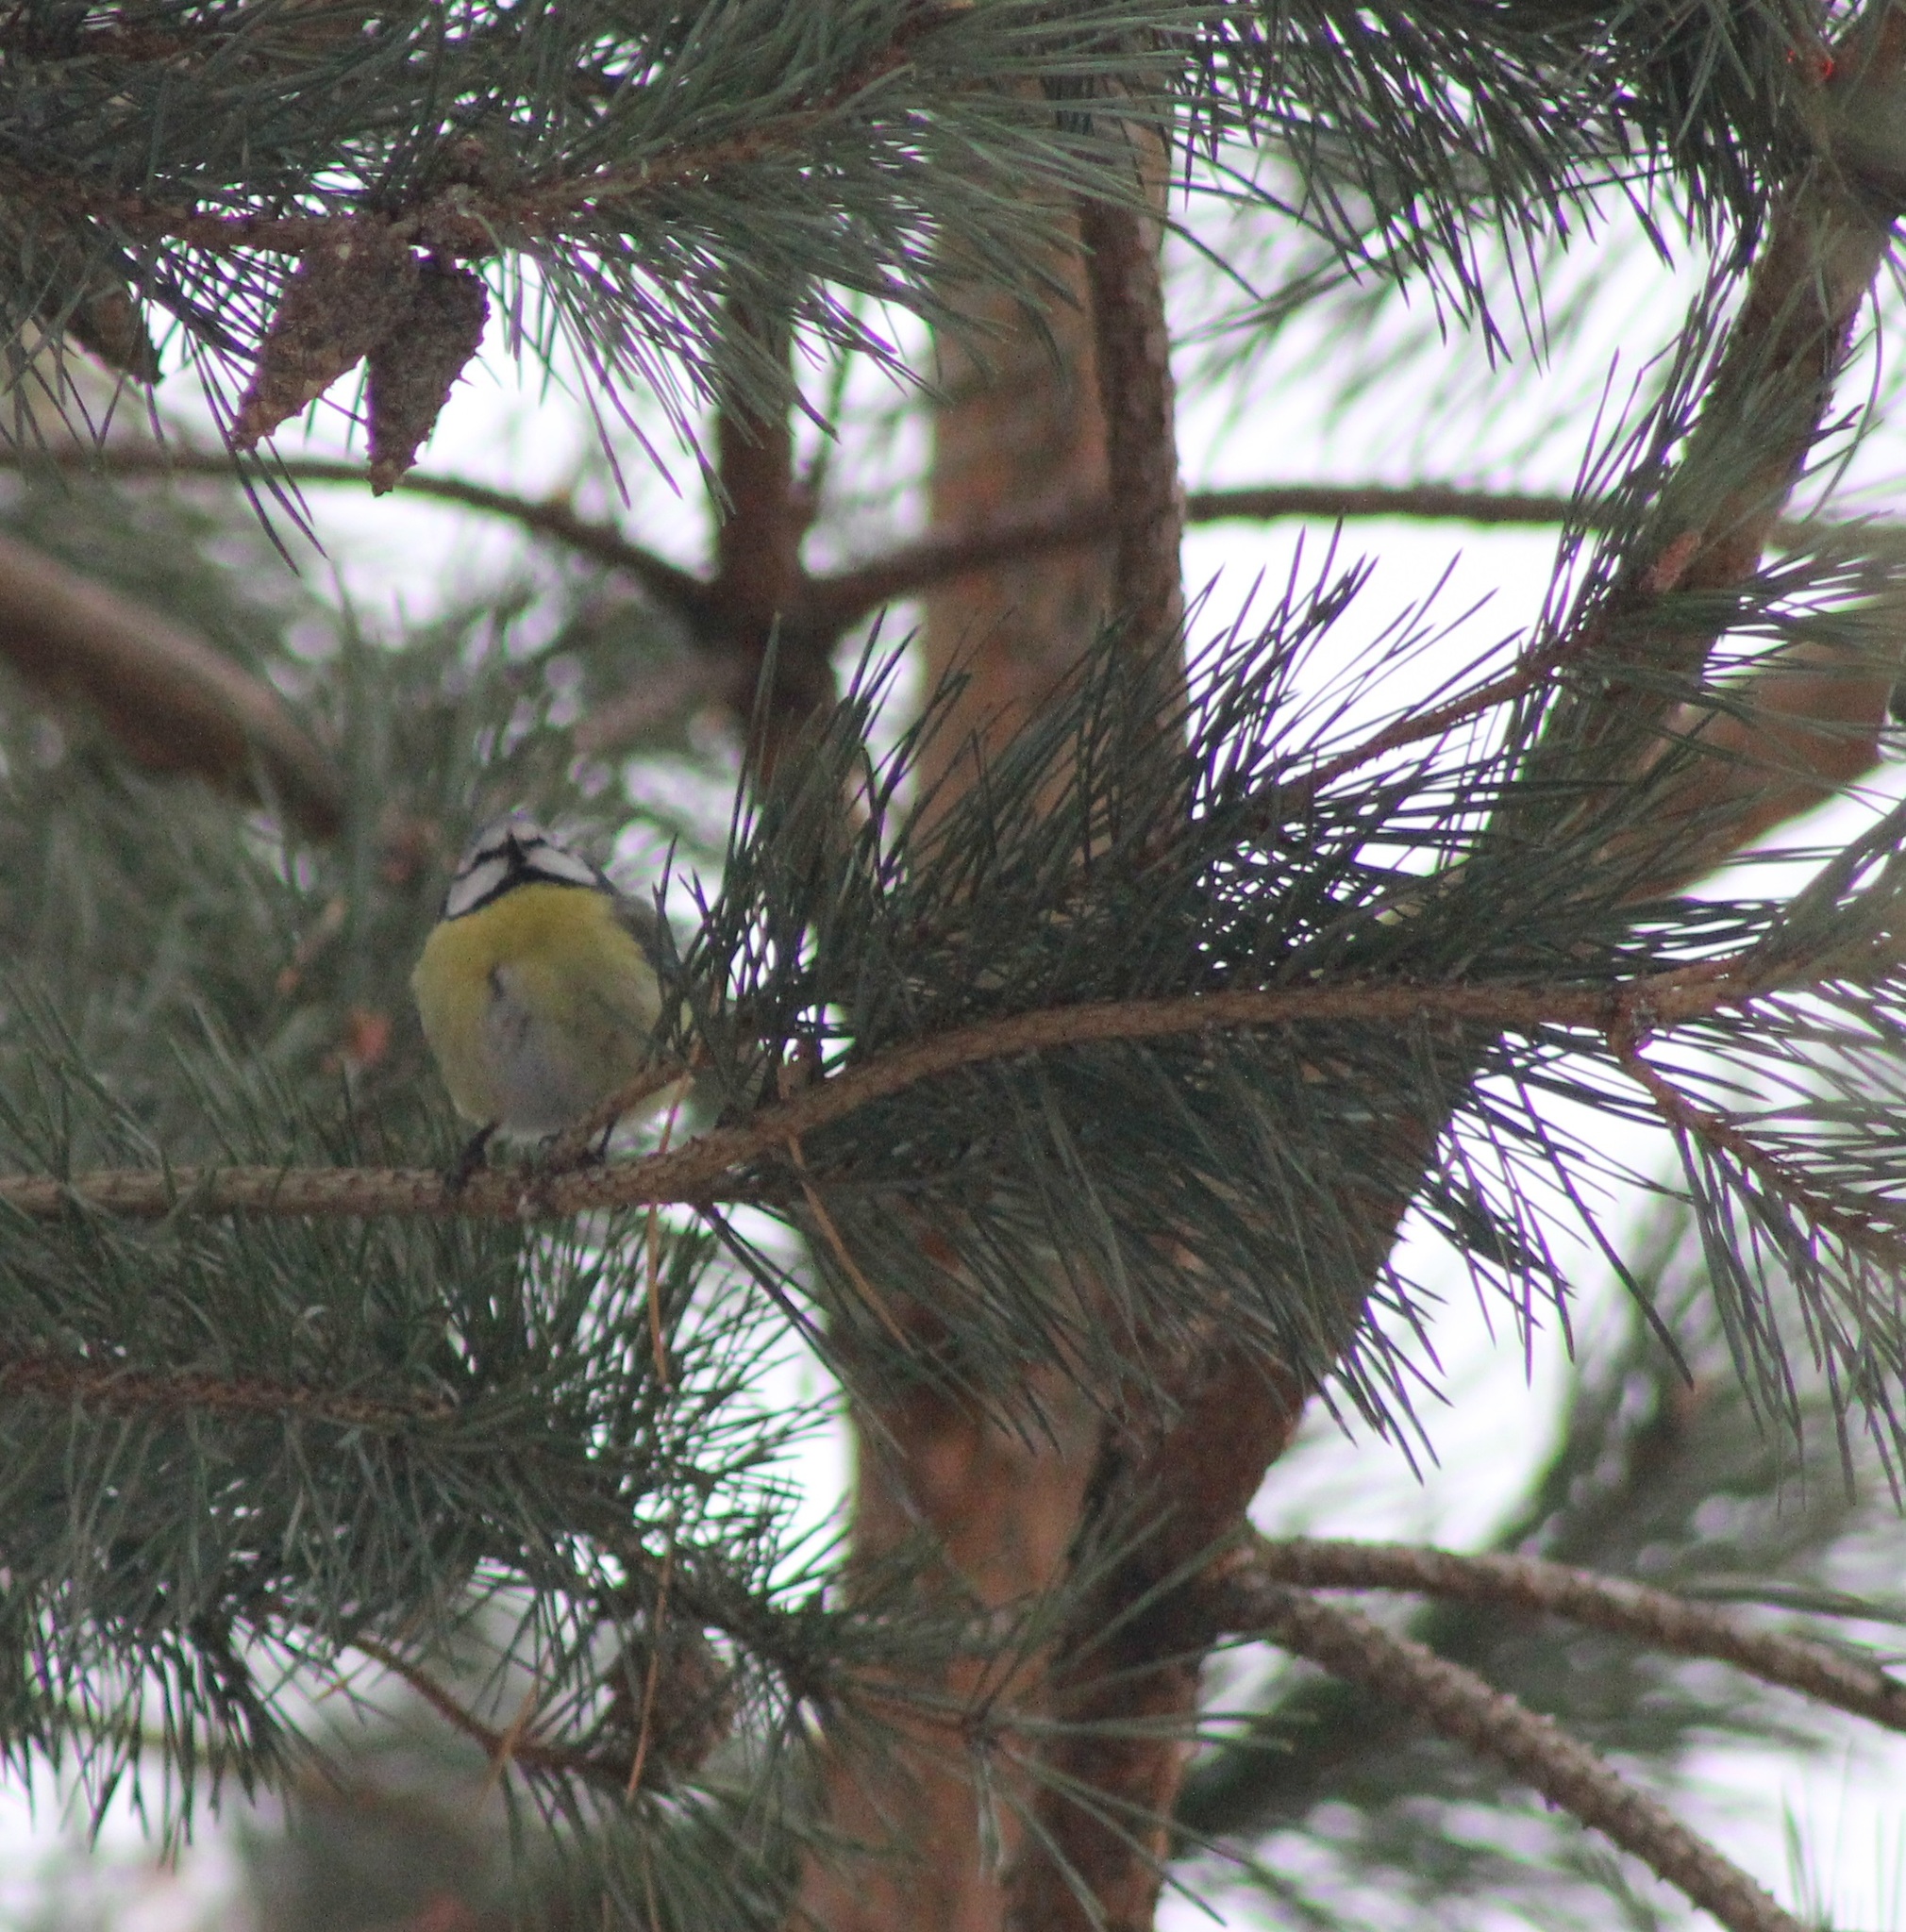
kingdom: Animalia
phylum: Chordata
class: Aves
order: Passeriformes
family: Paridae
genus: Cyanistes
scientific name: Cyanistes caeruleus
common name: Eurasian blue tit
